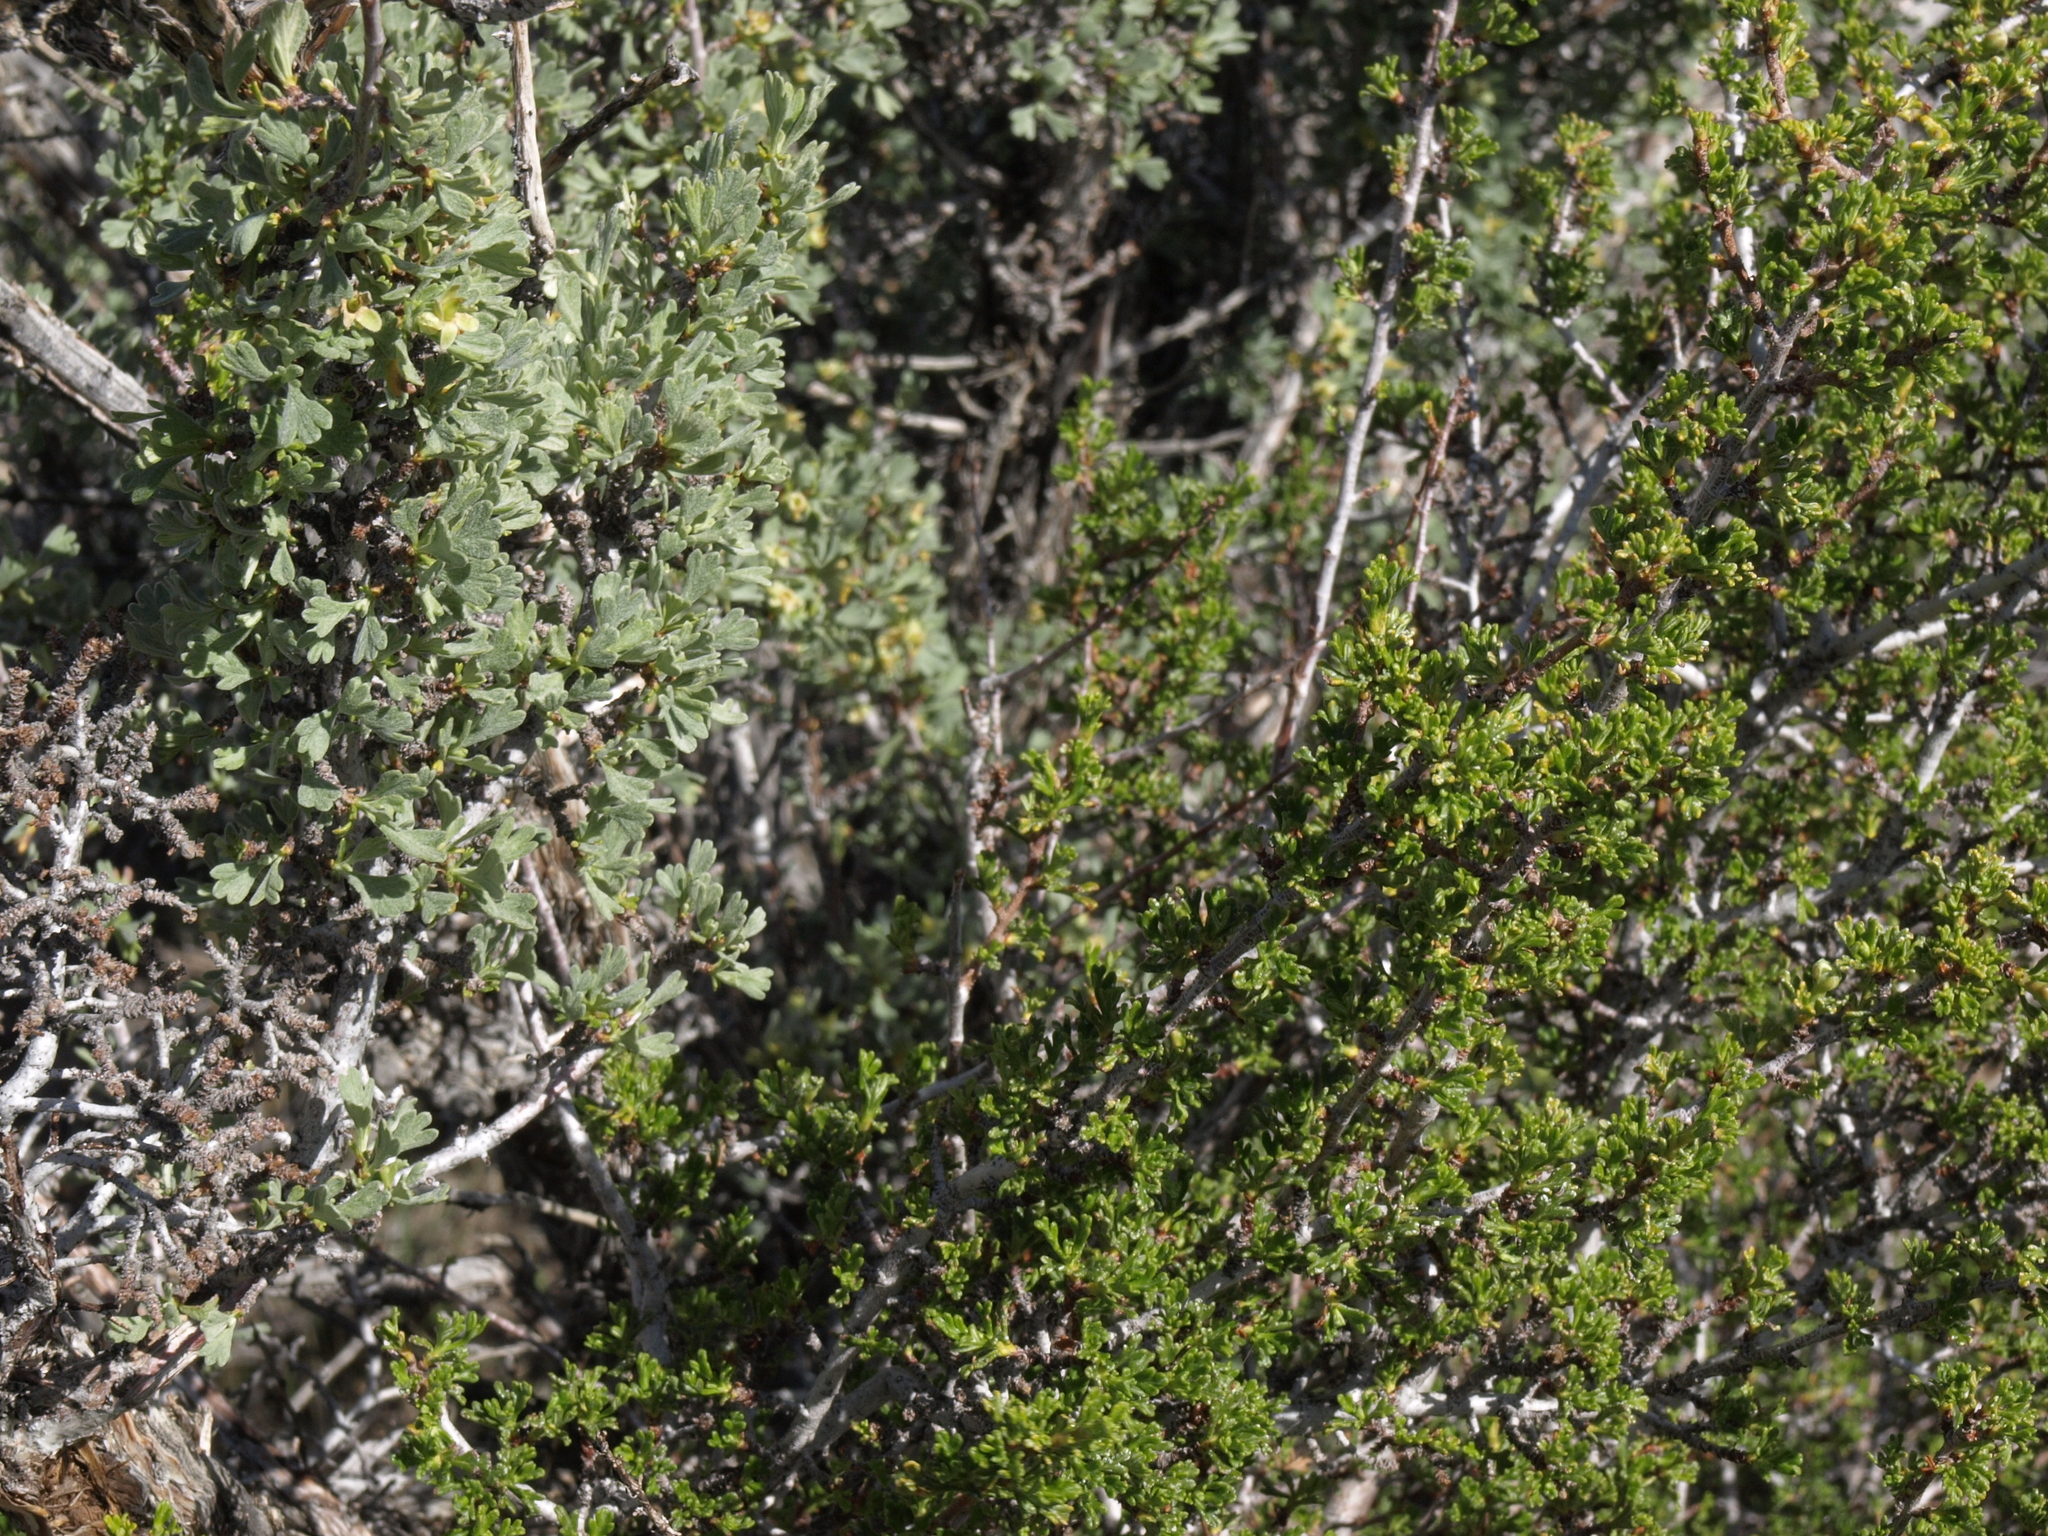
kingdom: Plantae
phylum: Tracheophyta
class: Magnoliopsida
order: Rosales
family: Rosaceae
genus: Purshia
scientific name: Purshia tridentata
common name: Antelope bitterbrush
